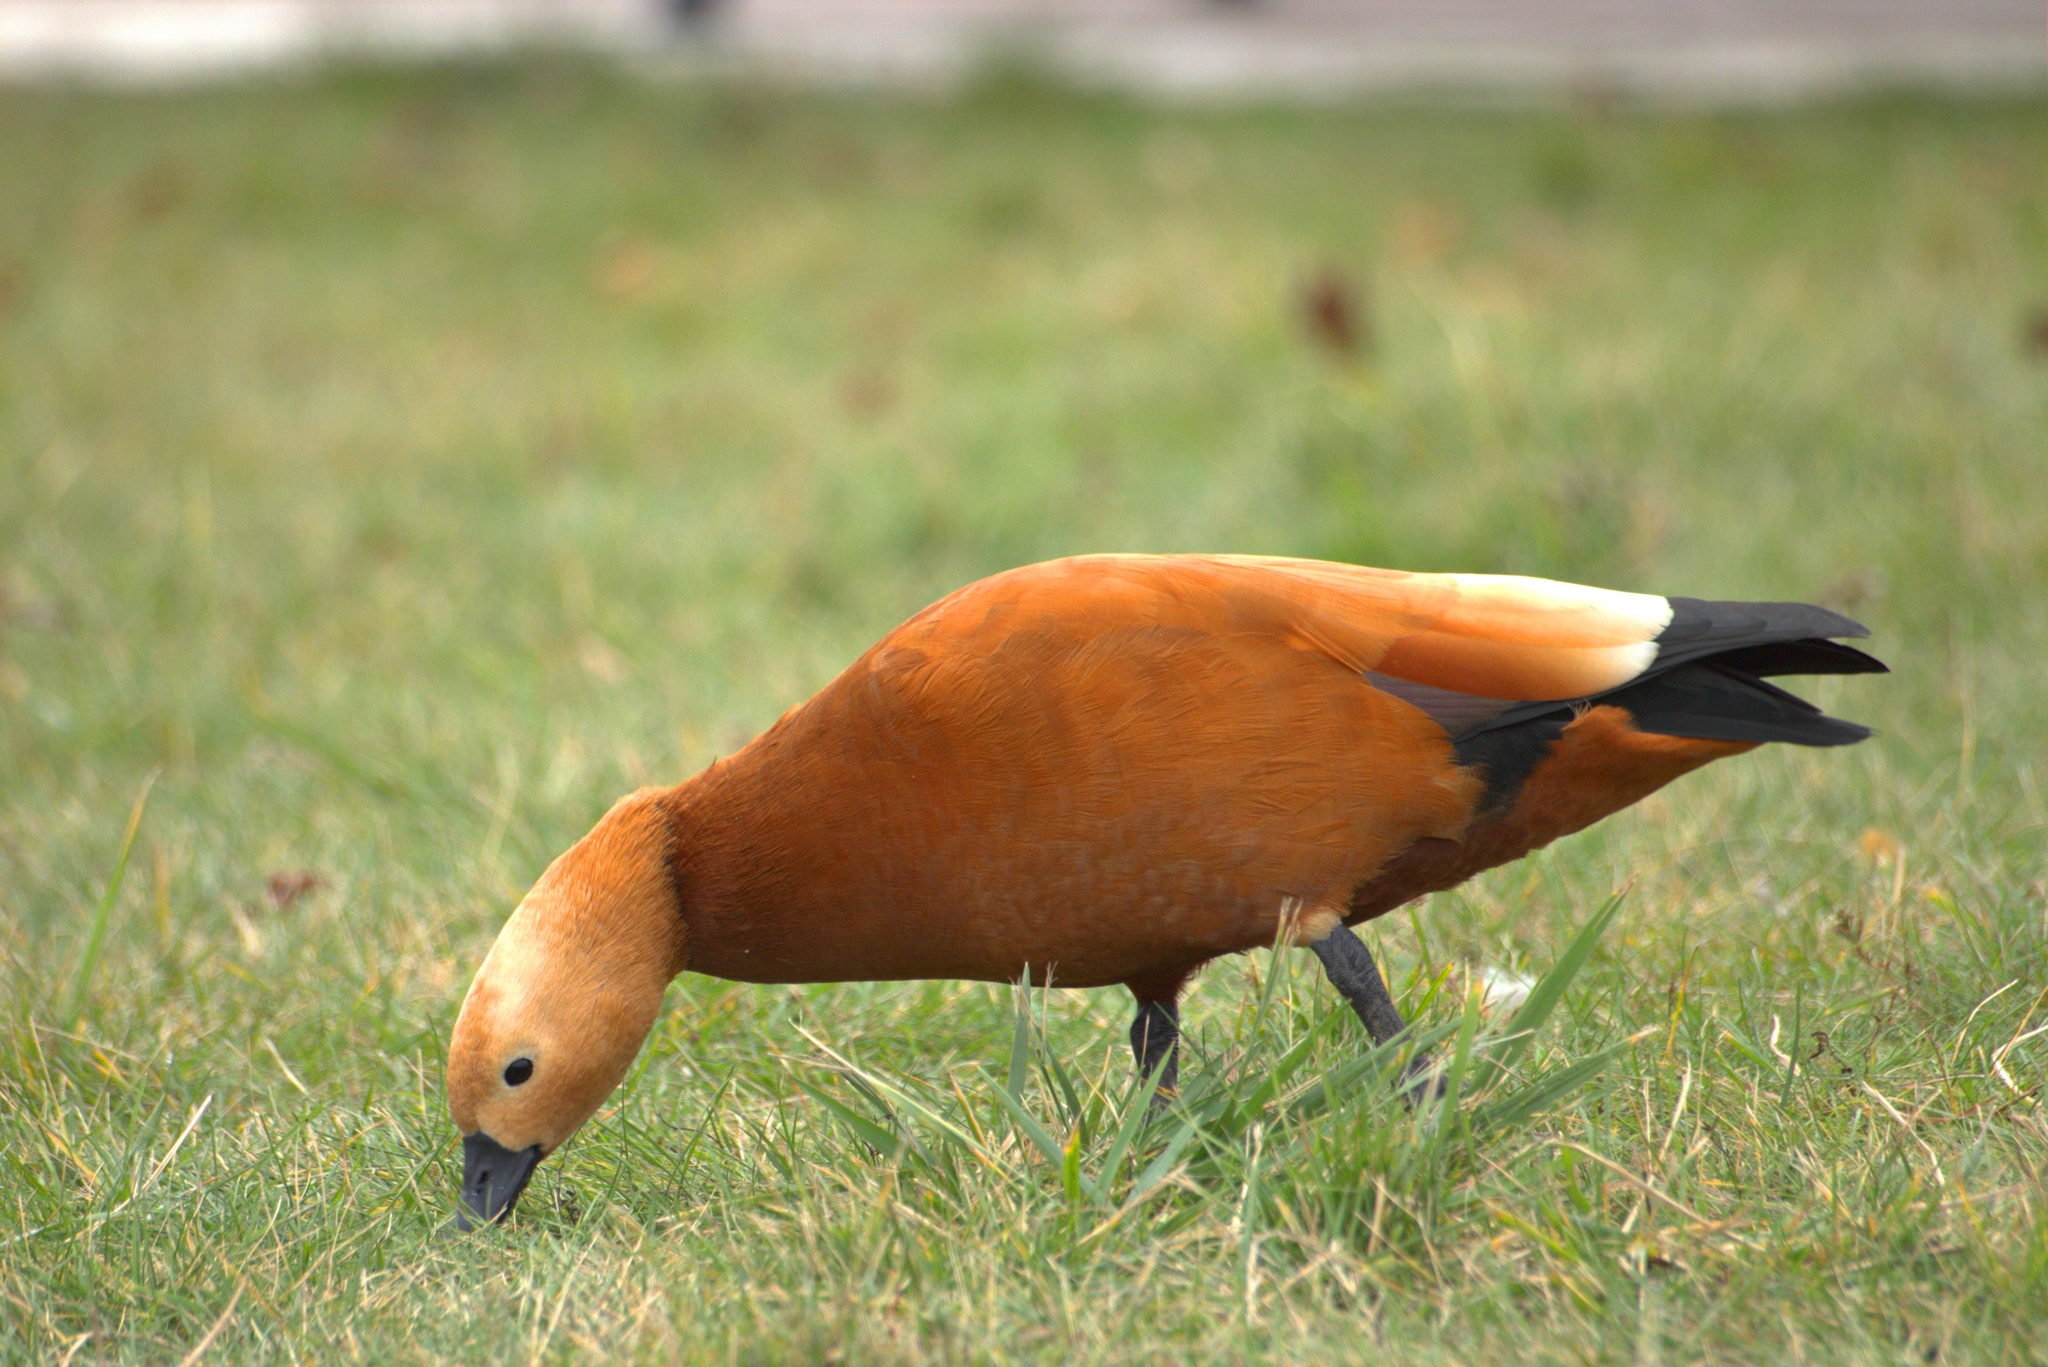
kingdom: Animalia
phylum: Chordata
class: Aves
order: Anseriformes
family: Anatidae
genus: Tadorna
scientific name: Tadorna ferruginea
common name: Ruddy shelduck
